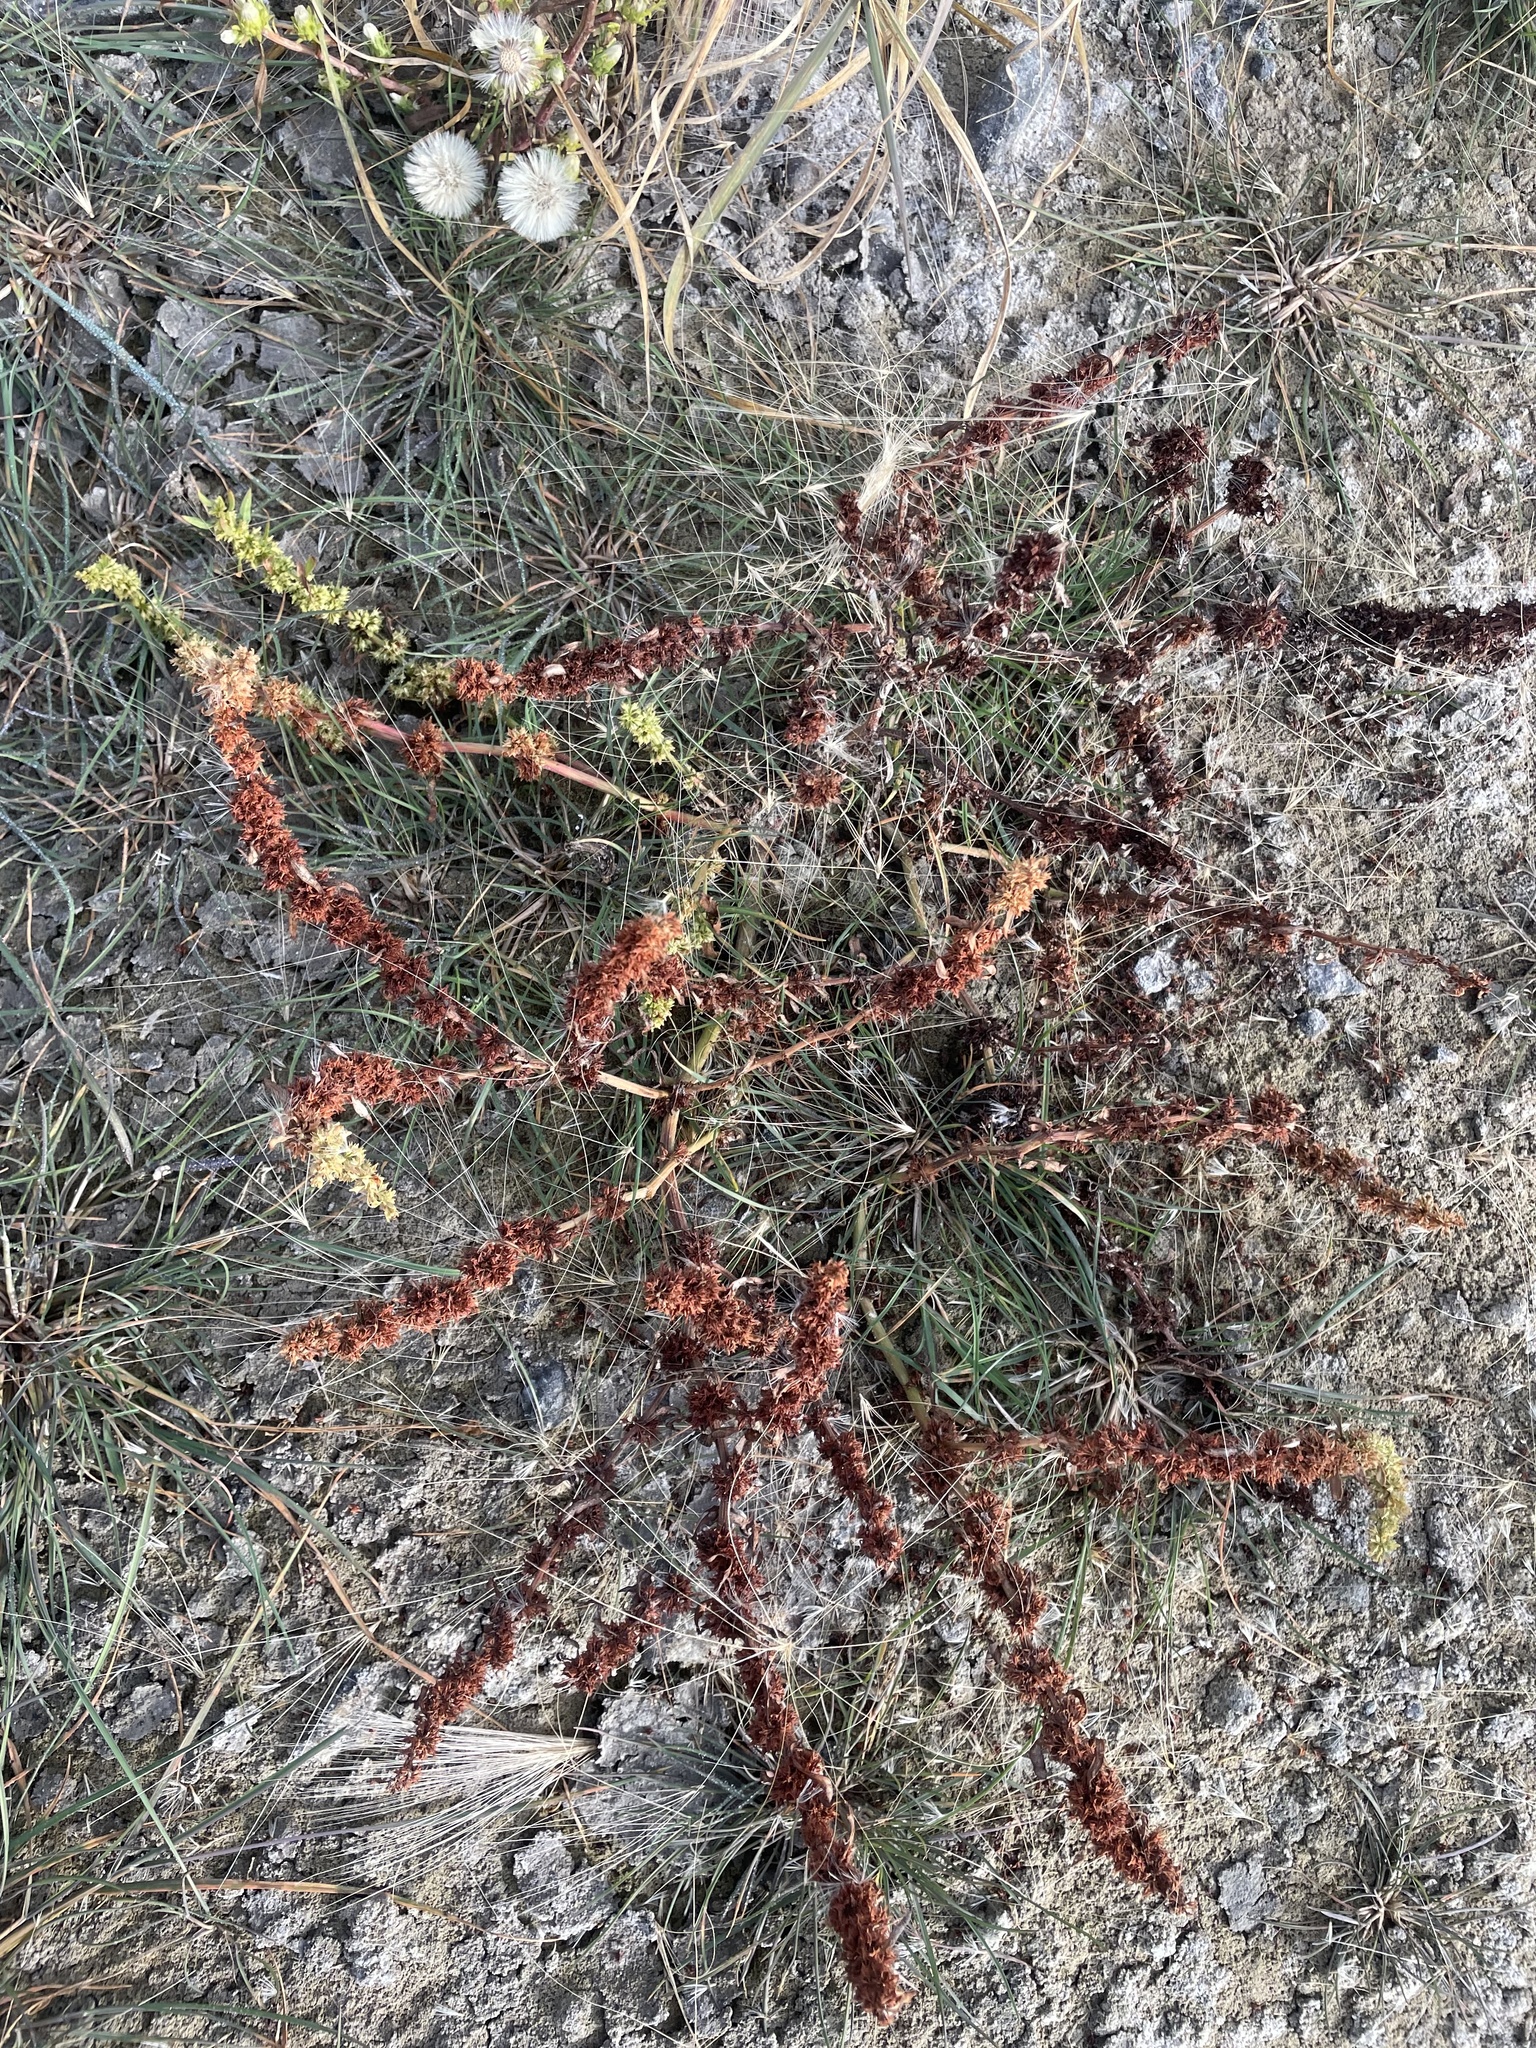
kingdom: Plantae
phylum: Tracheophyta
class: Magnoliopsida
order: Caryophyllales
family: Polygonaceae
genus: Rumex
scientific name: Rumex fueginus
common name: American golden dock
